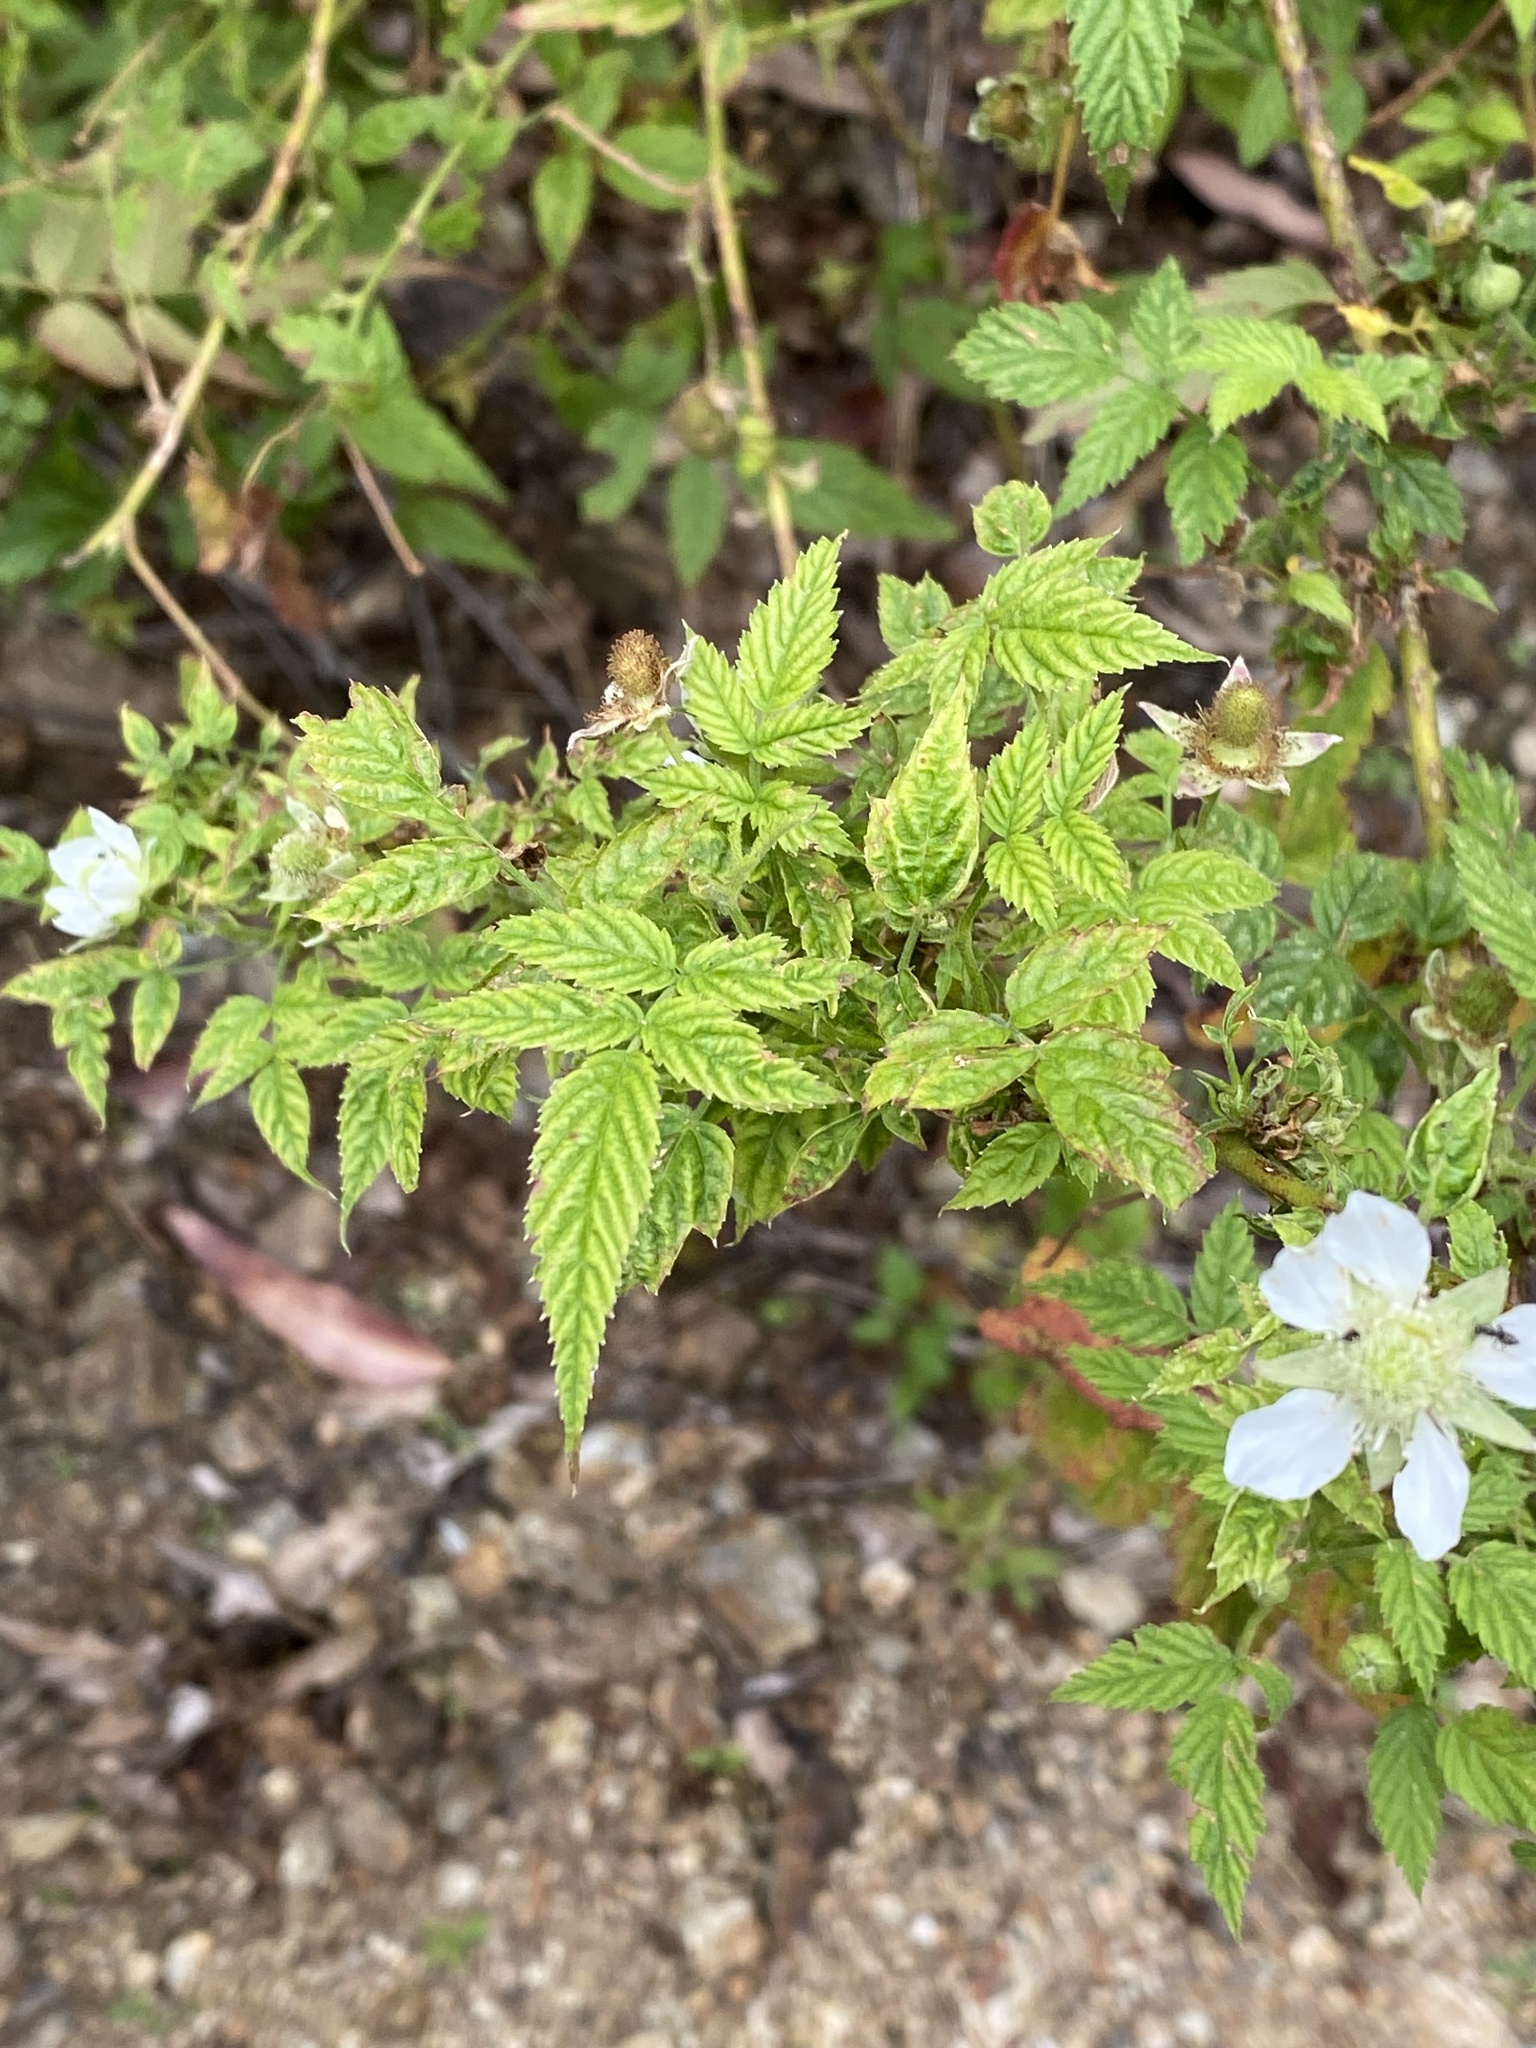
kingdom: Plantae
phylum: Tracheophyta
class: Magnoliopsida
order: Rosales
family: Rosaceae
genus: Rubus
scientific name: Rubus rosifolius
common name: Roseleaf raspberry
